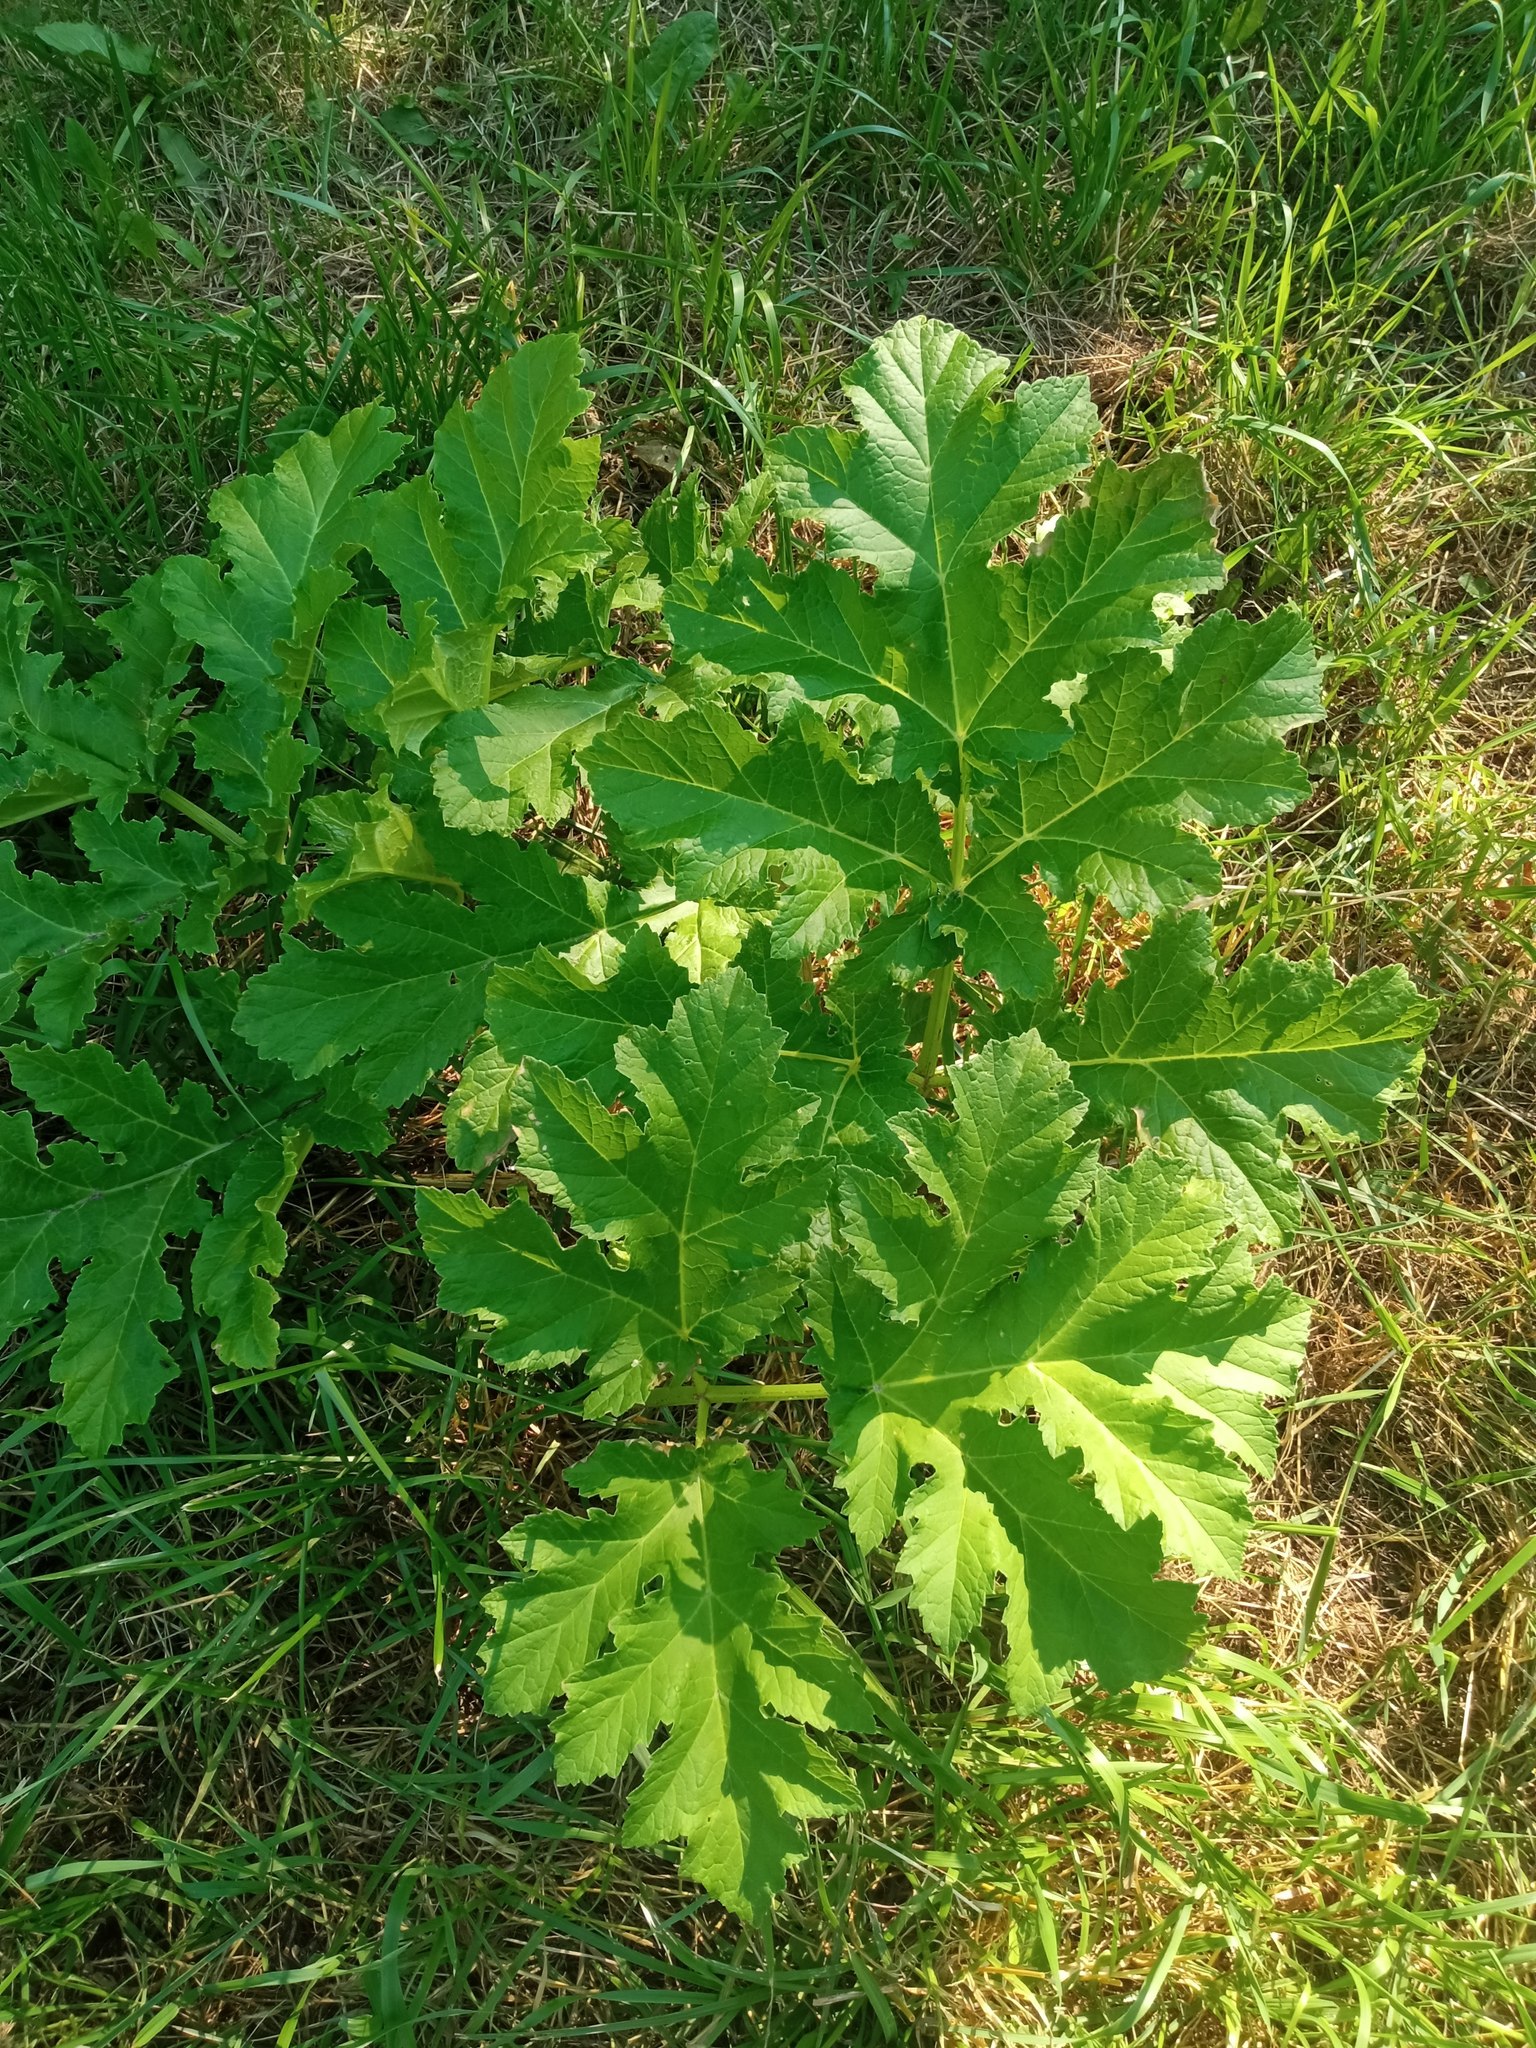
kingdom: Plantae
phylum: Tracheophyta
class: Magnoliopsida
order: Apiales
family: Apiaceae
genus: Heracleum
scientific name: Heracleum sosnowskyi
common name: Sosnowsky's hogweed
